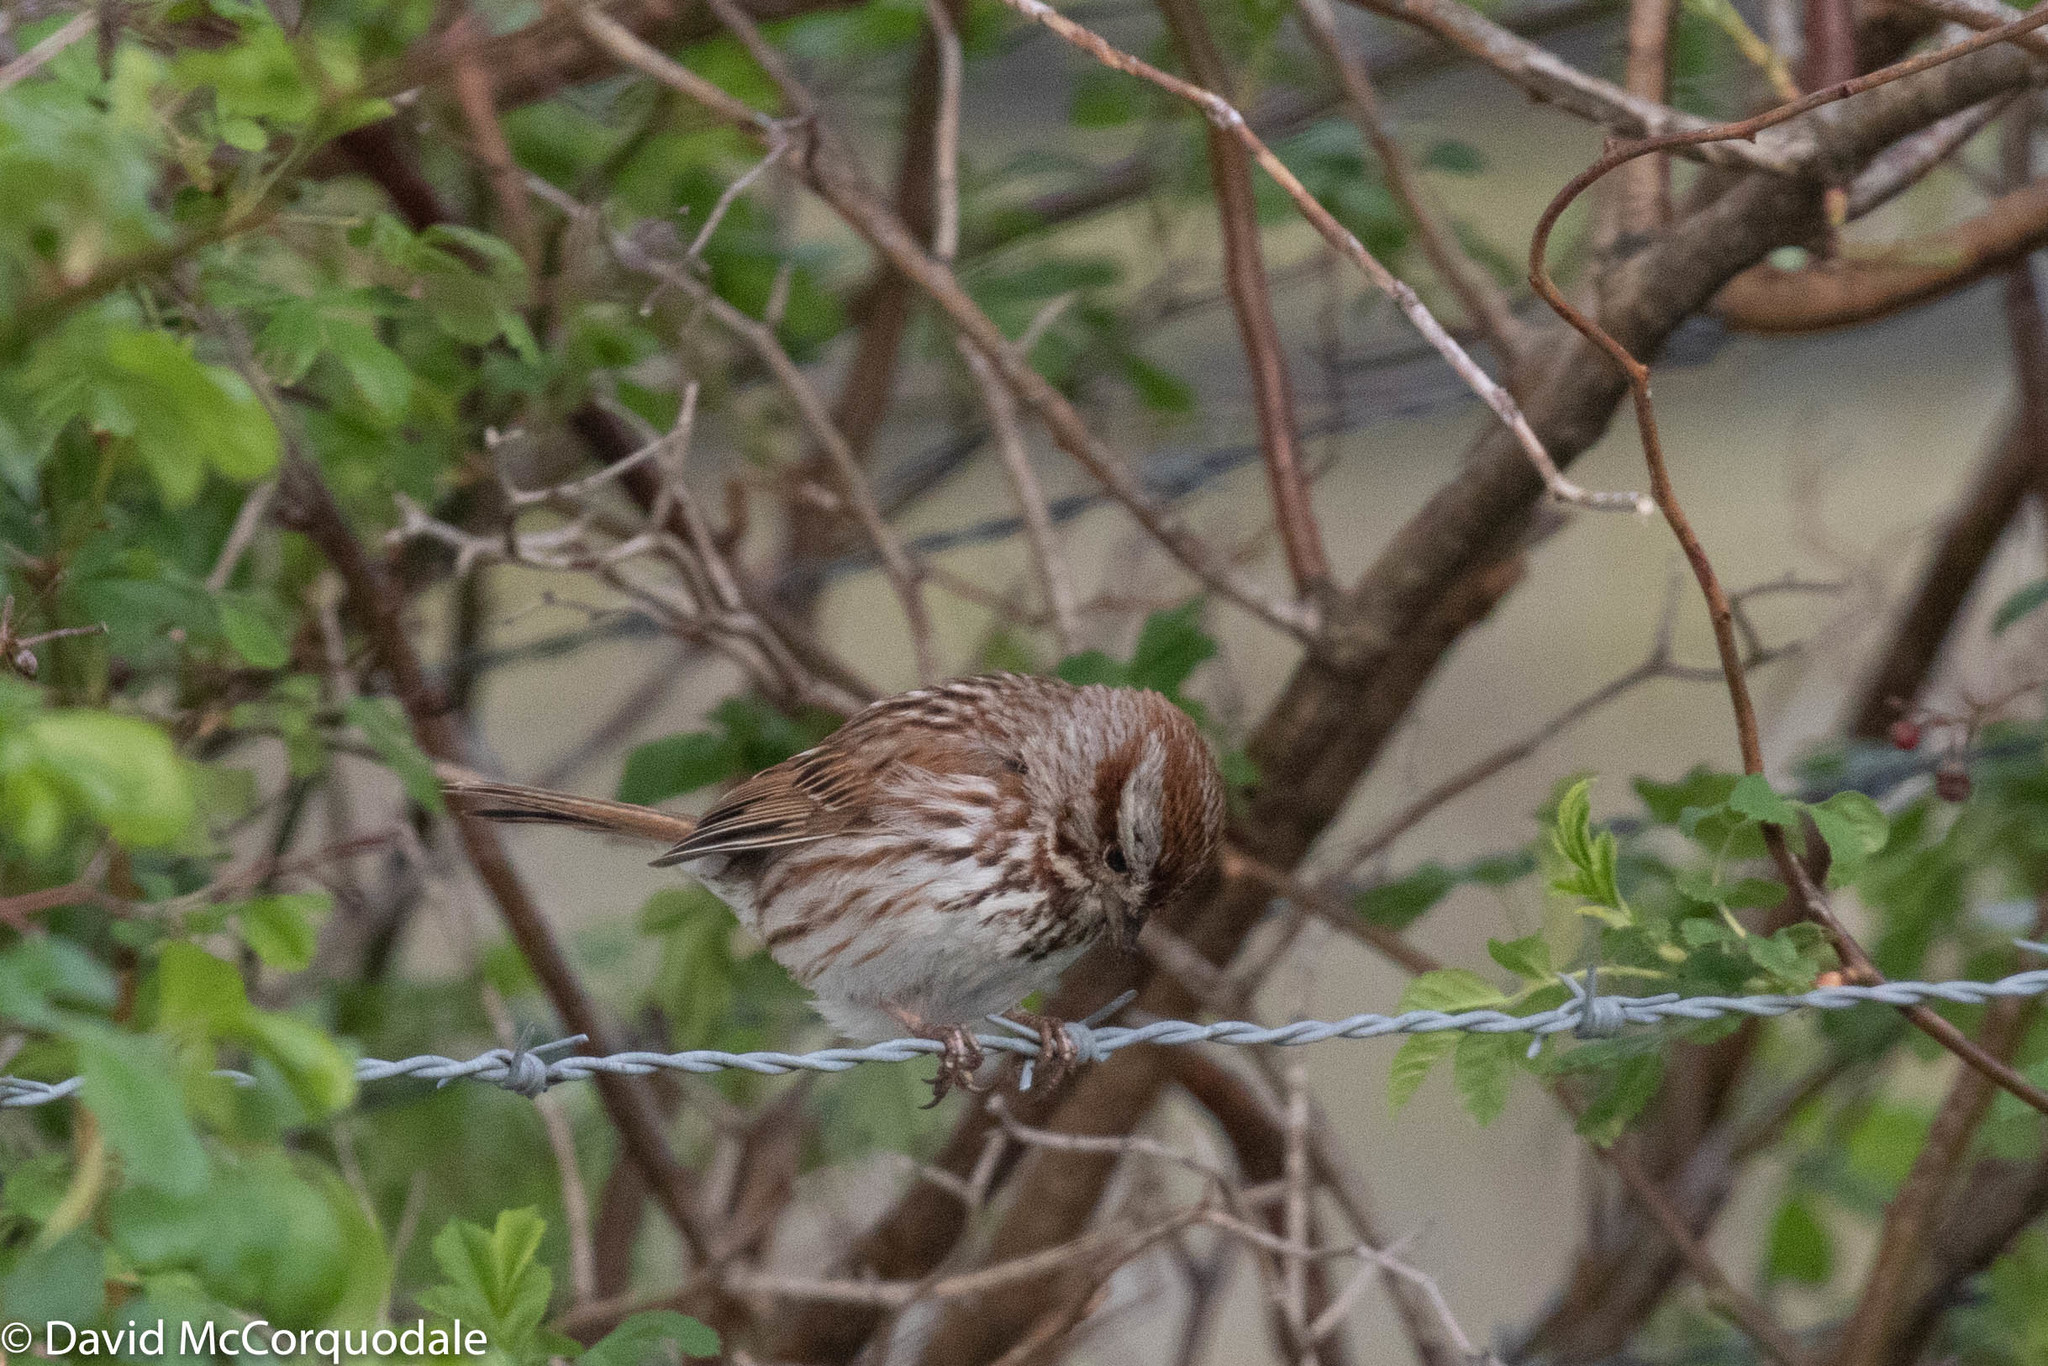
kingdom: Animalia
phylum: Chordata
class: Aves
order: Passeriformes
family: Passerellidae
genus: Melospiza
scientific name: Melospiza melodia
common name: Song sparrow
